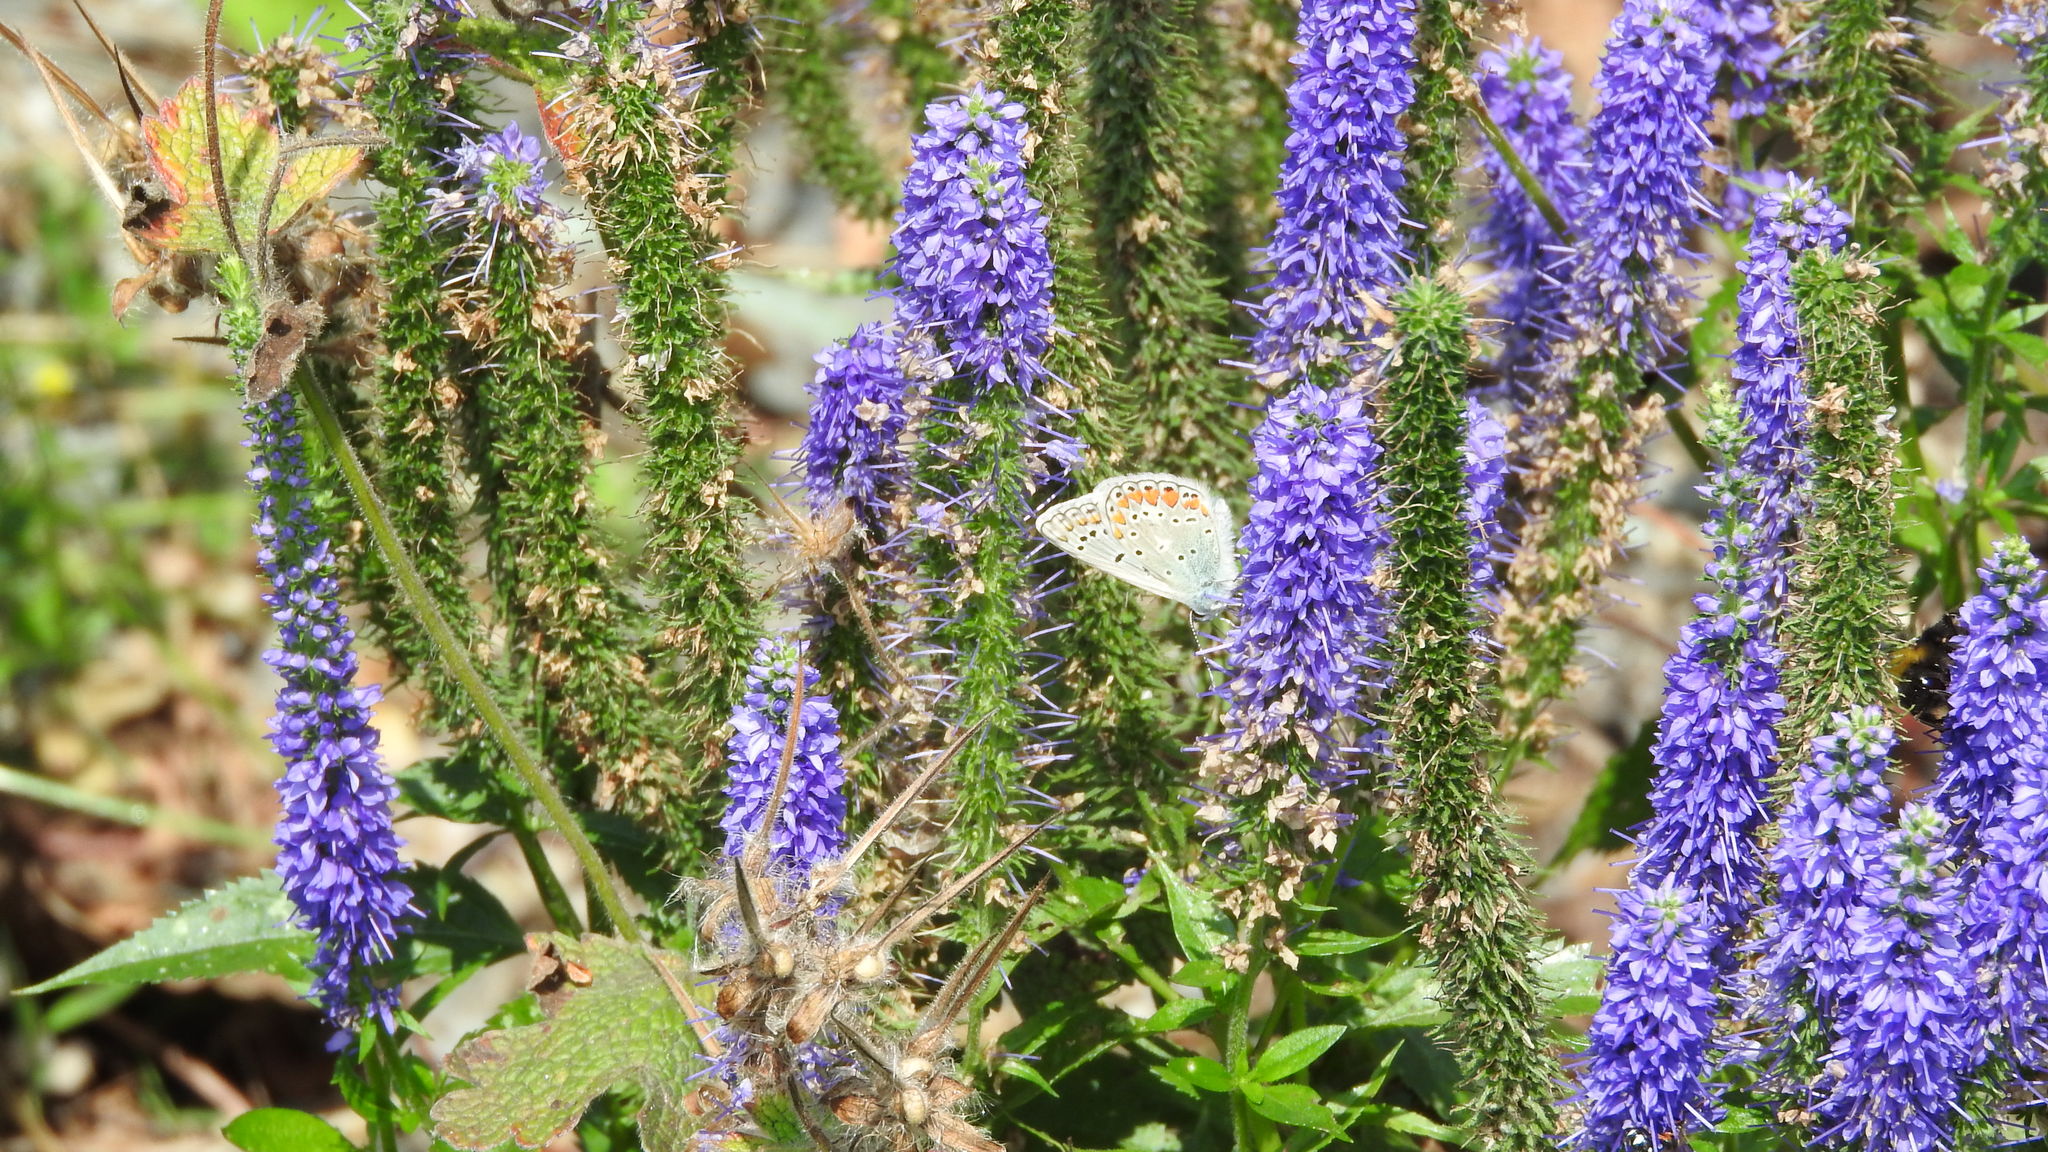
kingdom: Animalia
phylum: Arthropoda
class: Insecta
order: Lepidoptera
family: Lycaenidae
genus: Polyommatus
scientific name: Polyommatus icarus
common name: Common blue
